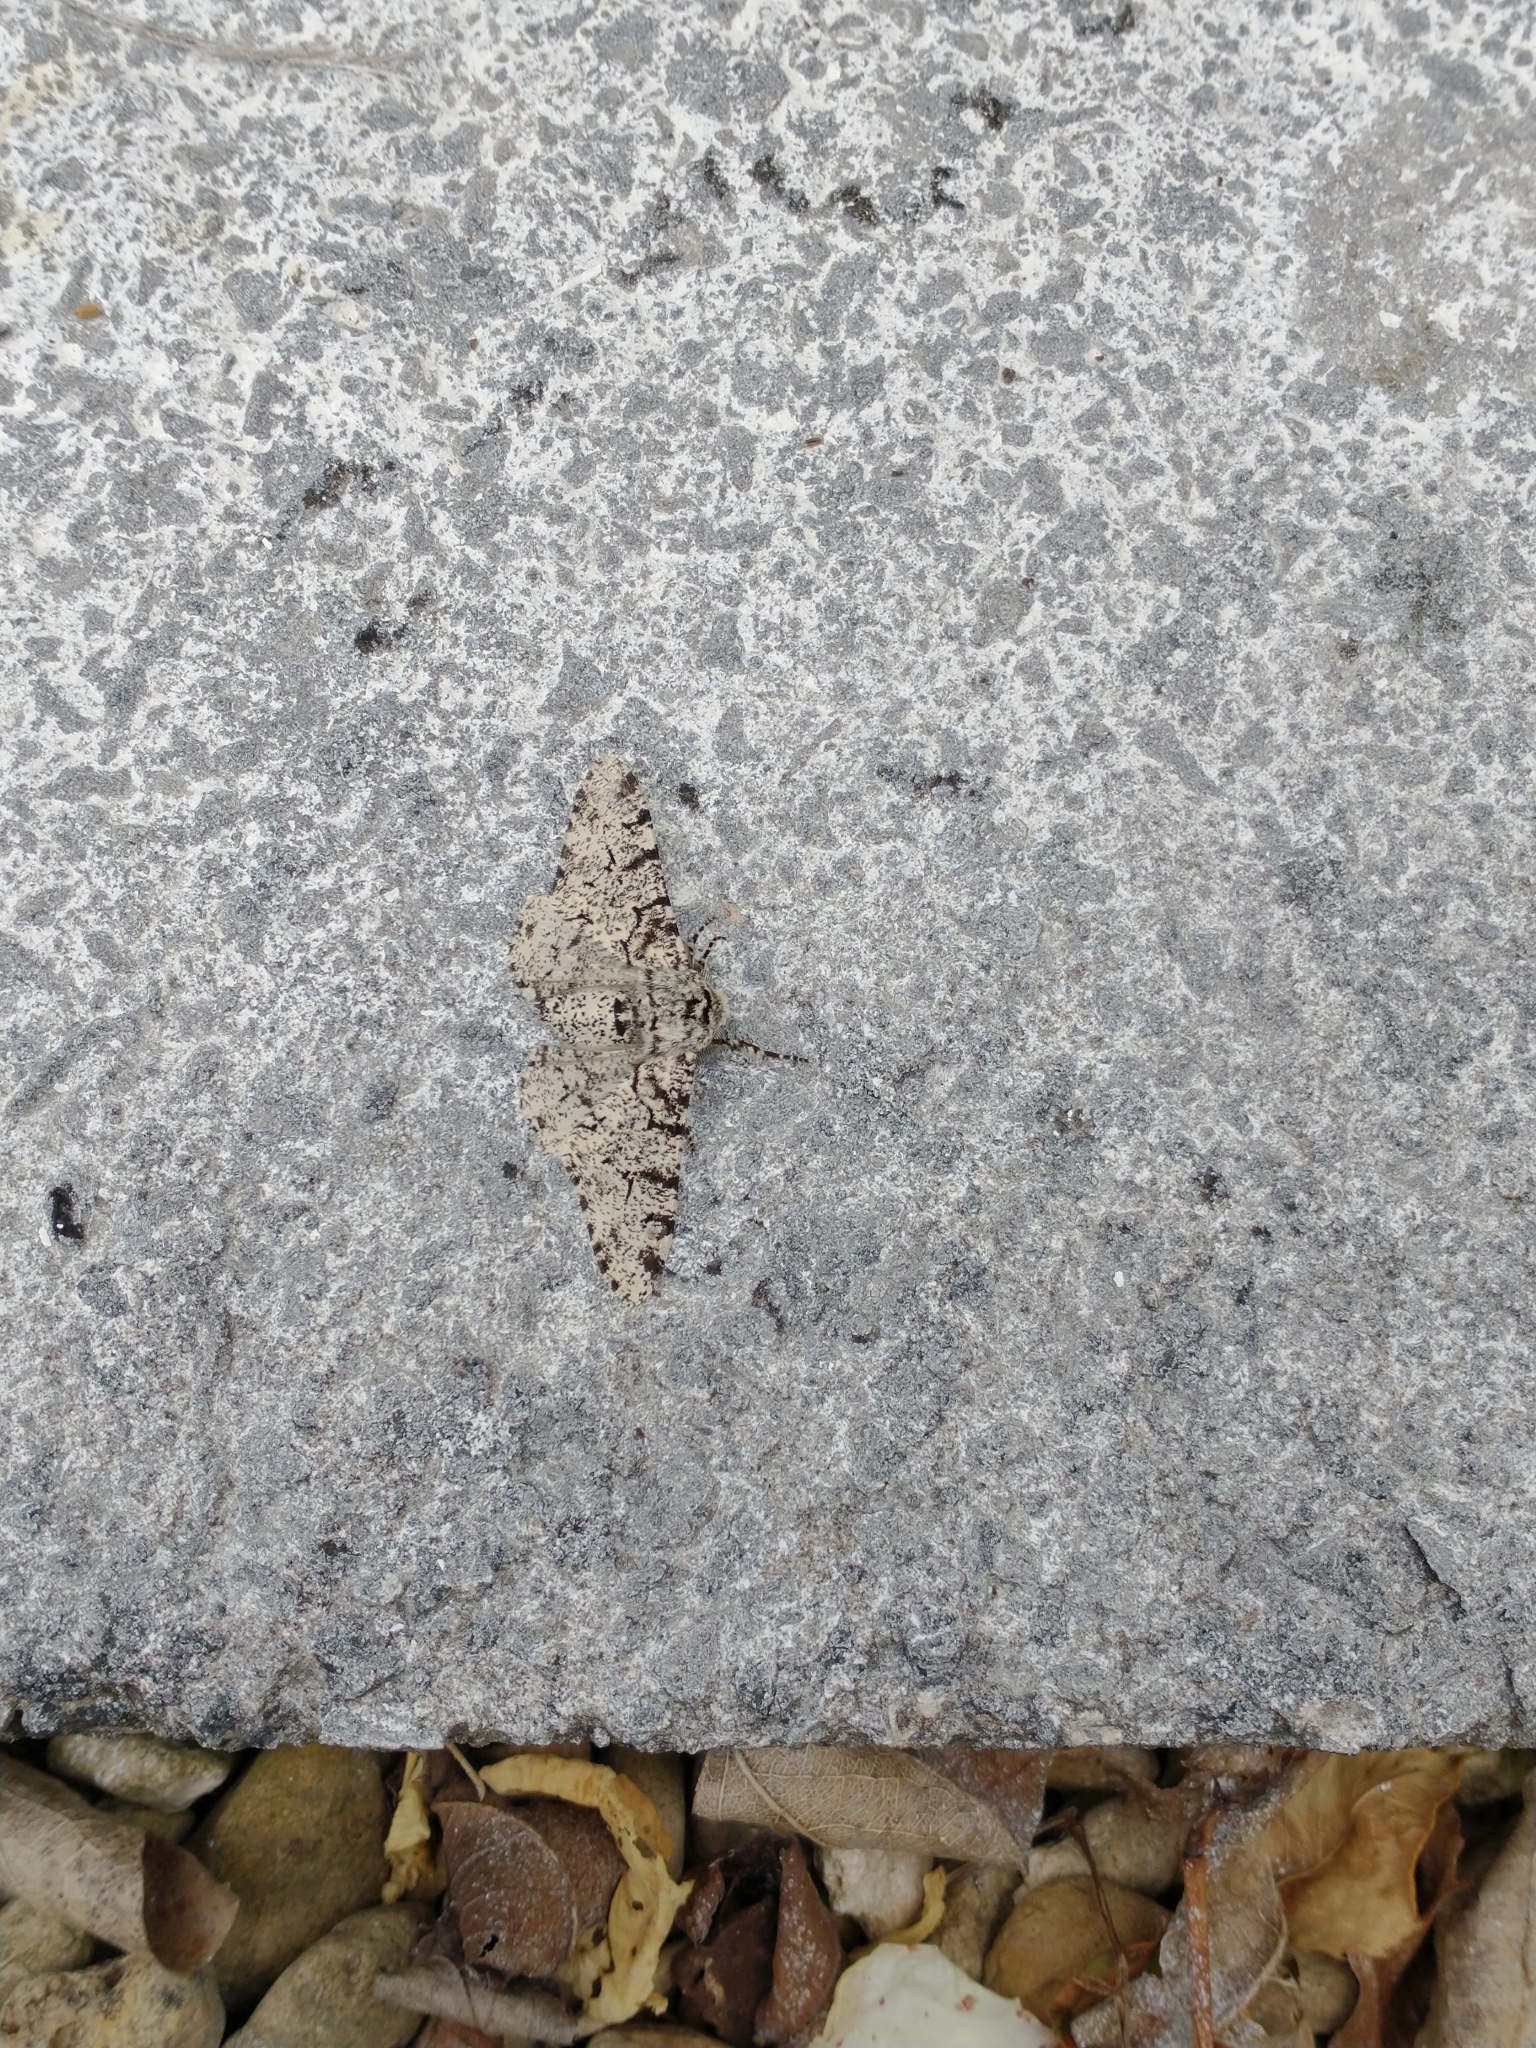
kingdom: Animalia
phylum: Arthropoda
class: Insecta
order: Lepidoptera
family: Geometridae
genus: Biston
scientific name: Biston betularia
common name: Peppered moth
